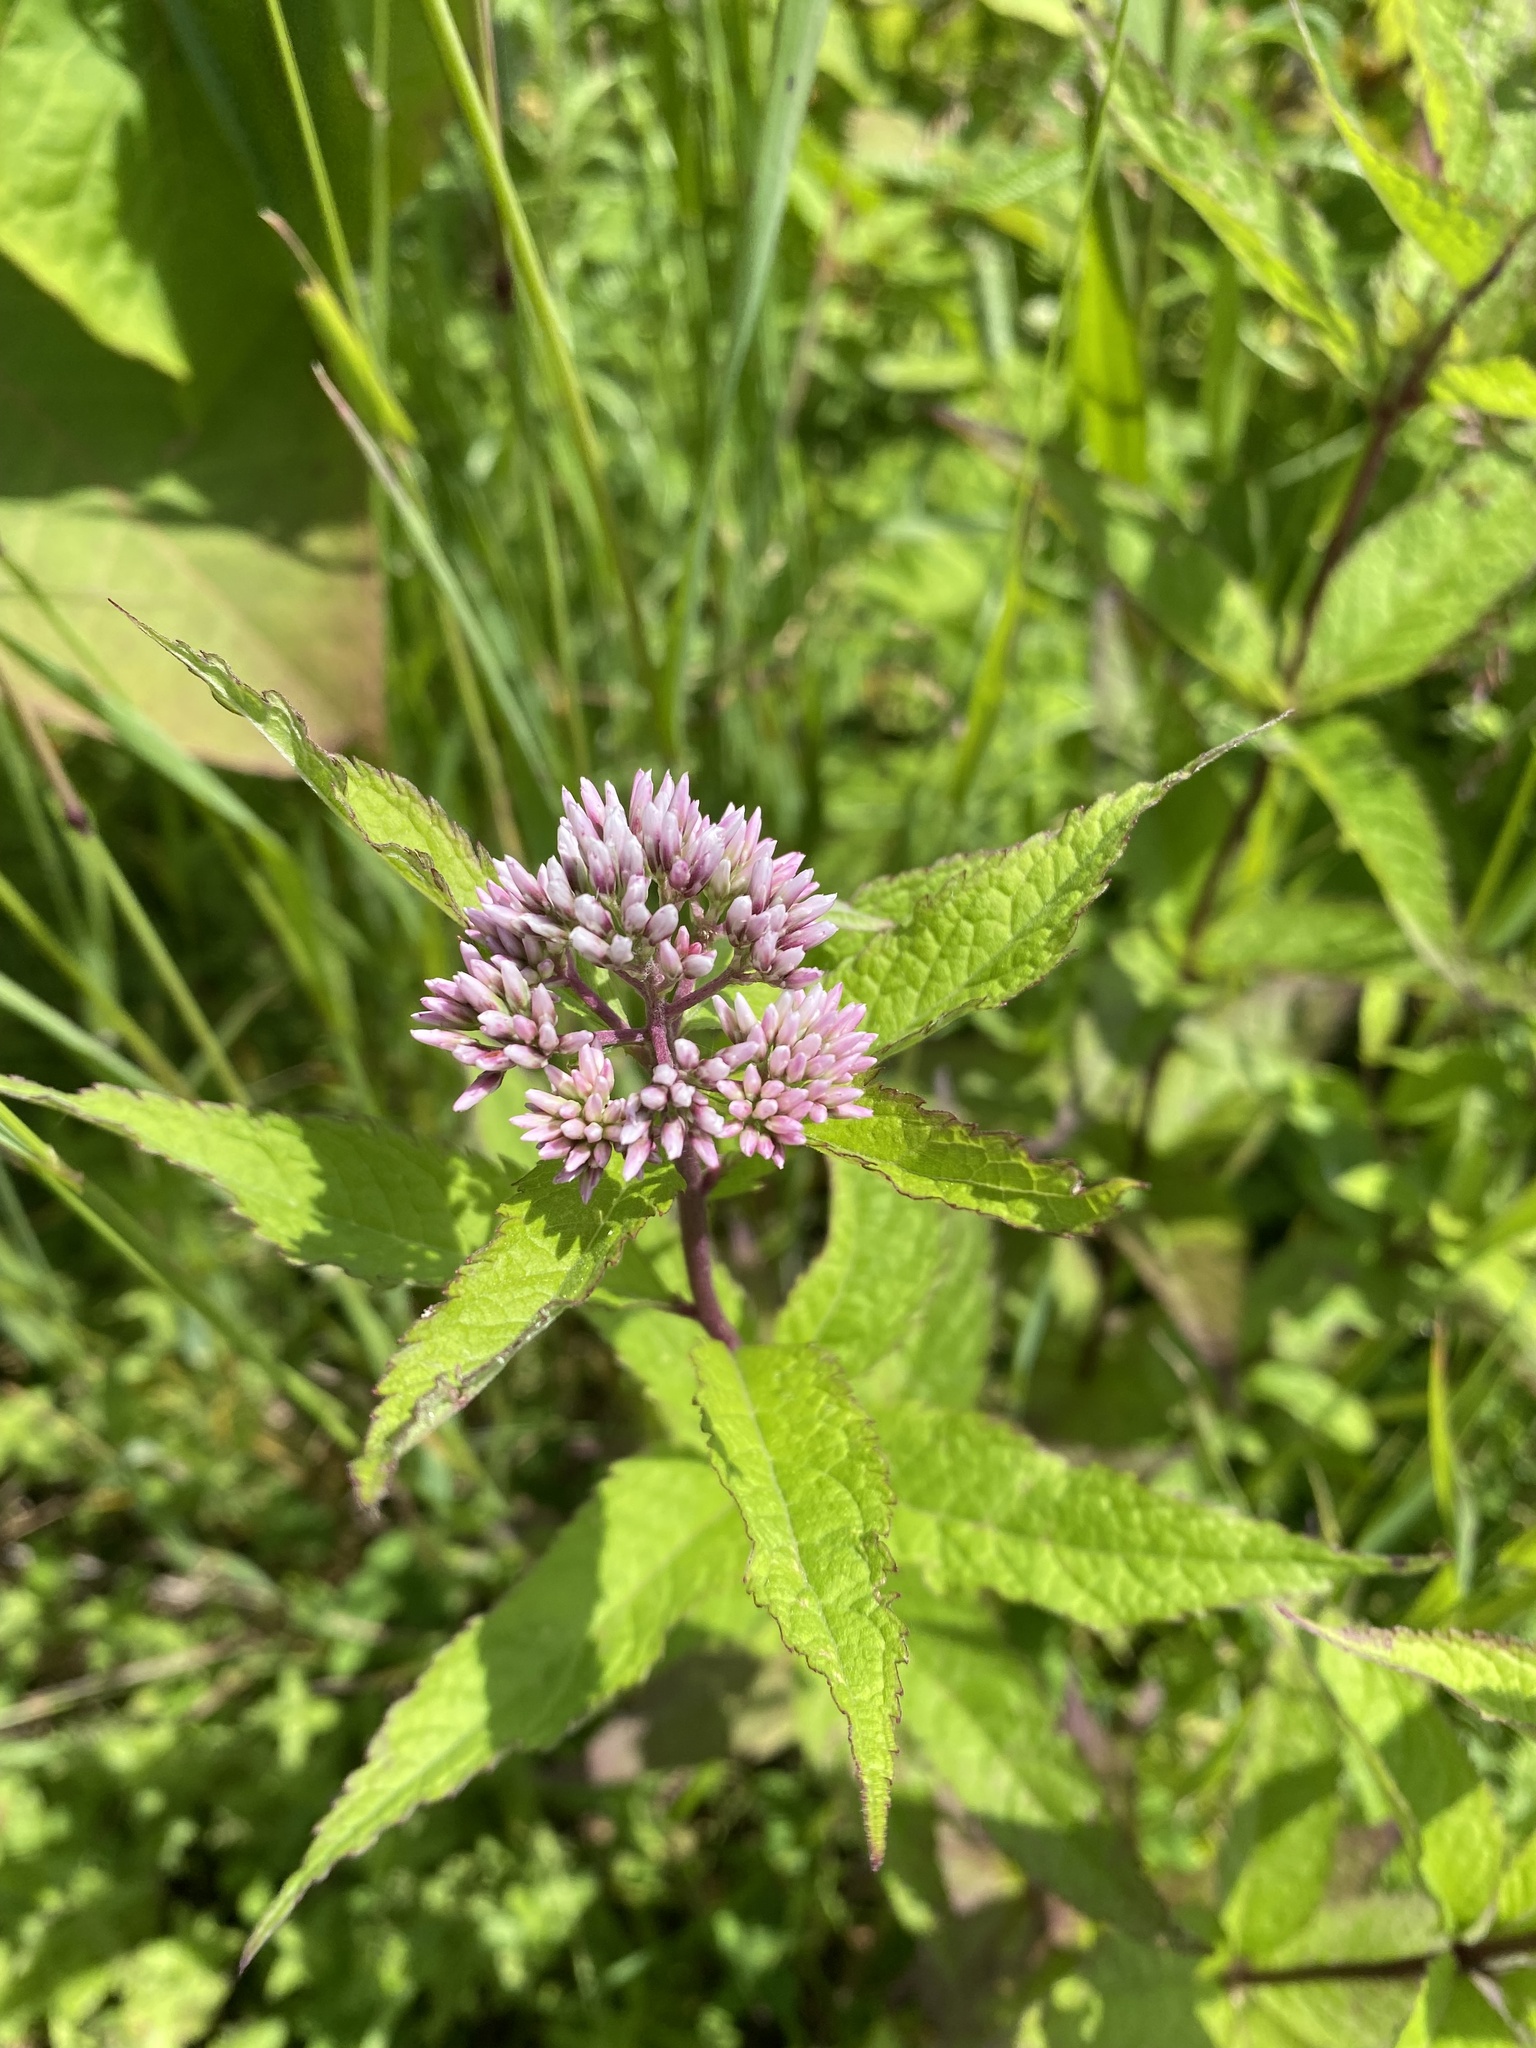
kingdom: Plantae
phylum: Tracheophyta
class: Magnoliopsida
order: Asterales
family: Asteraceae
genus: Eupatorium
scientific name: Eupatorium glehnii
